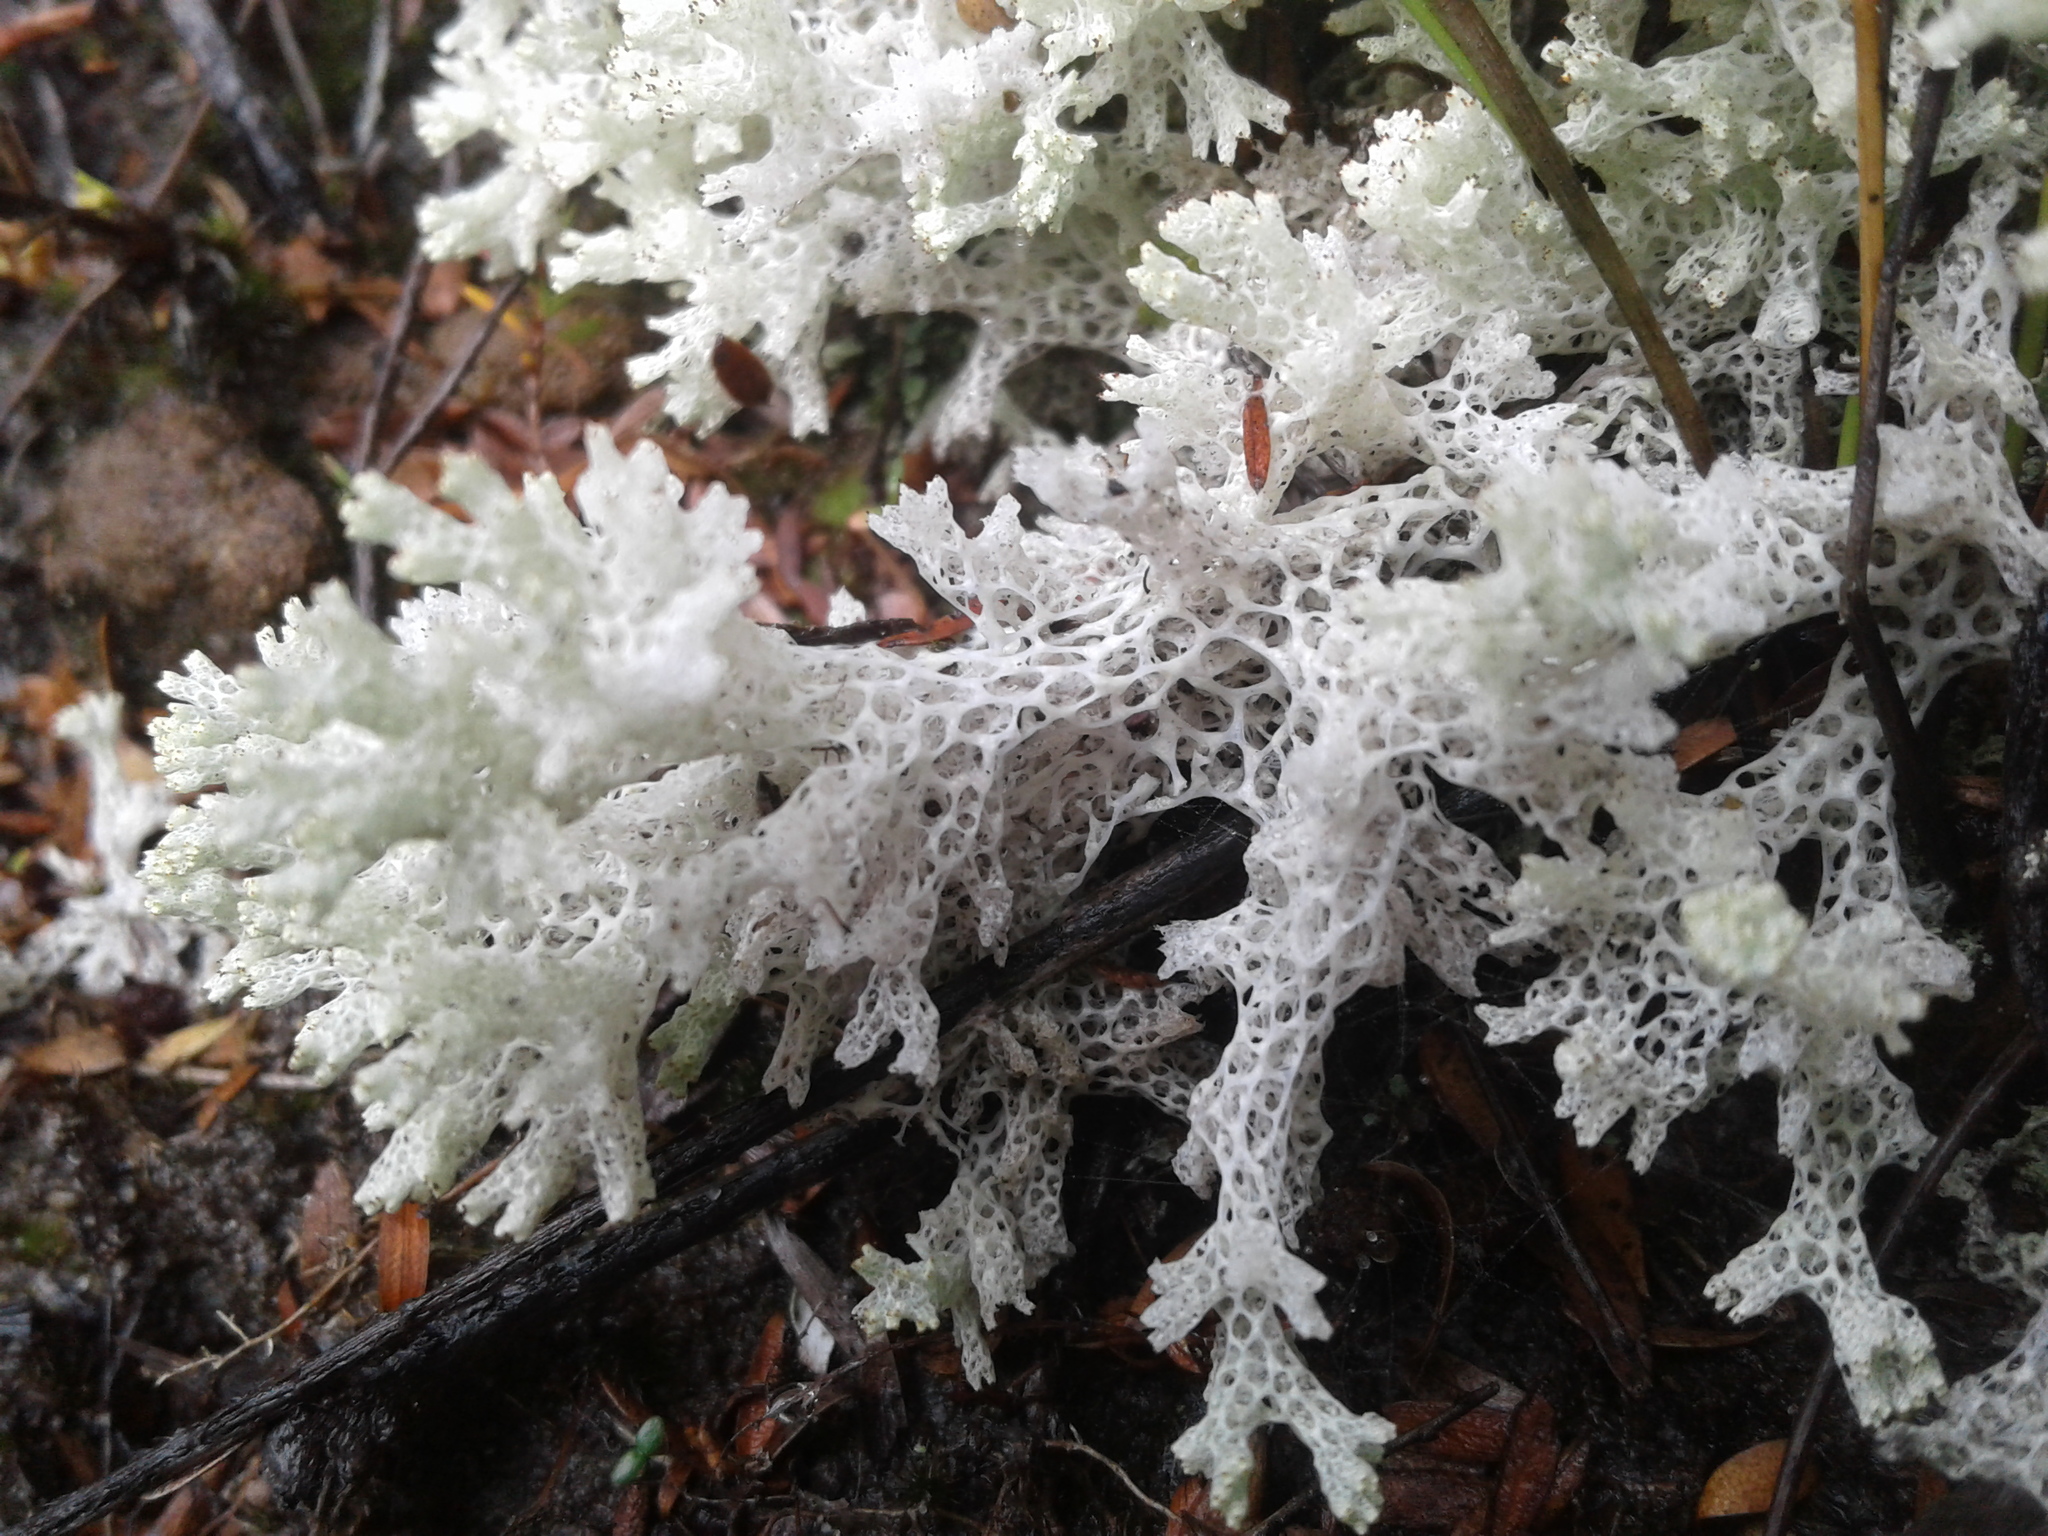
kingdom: Fungi
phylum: Ascomycota
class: Lecanoromycetes
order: Lecanorales
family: Cladoniaceae
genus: Pulchrocladia
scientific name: Pulchrocladia retipora
